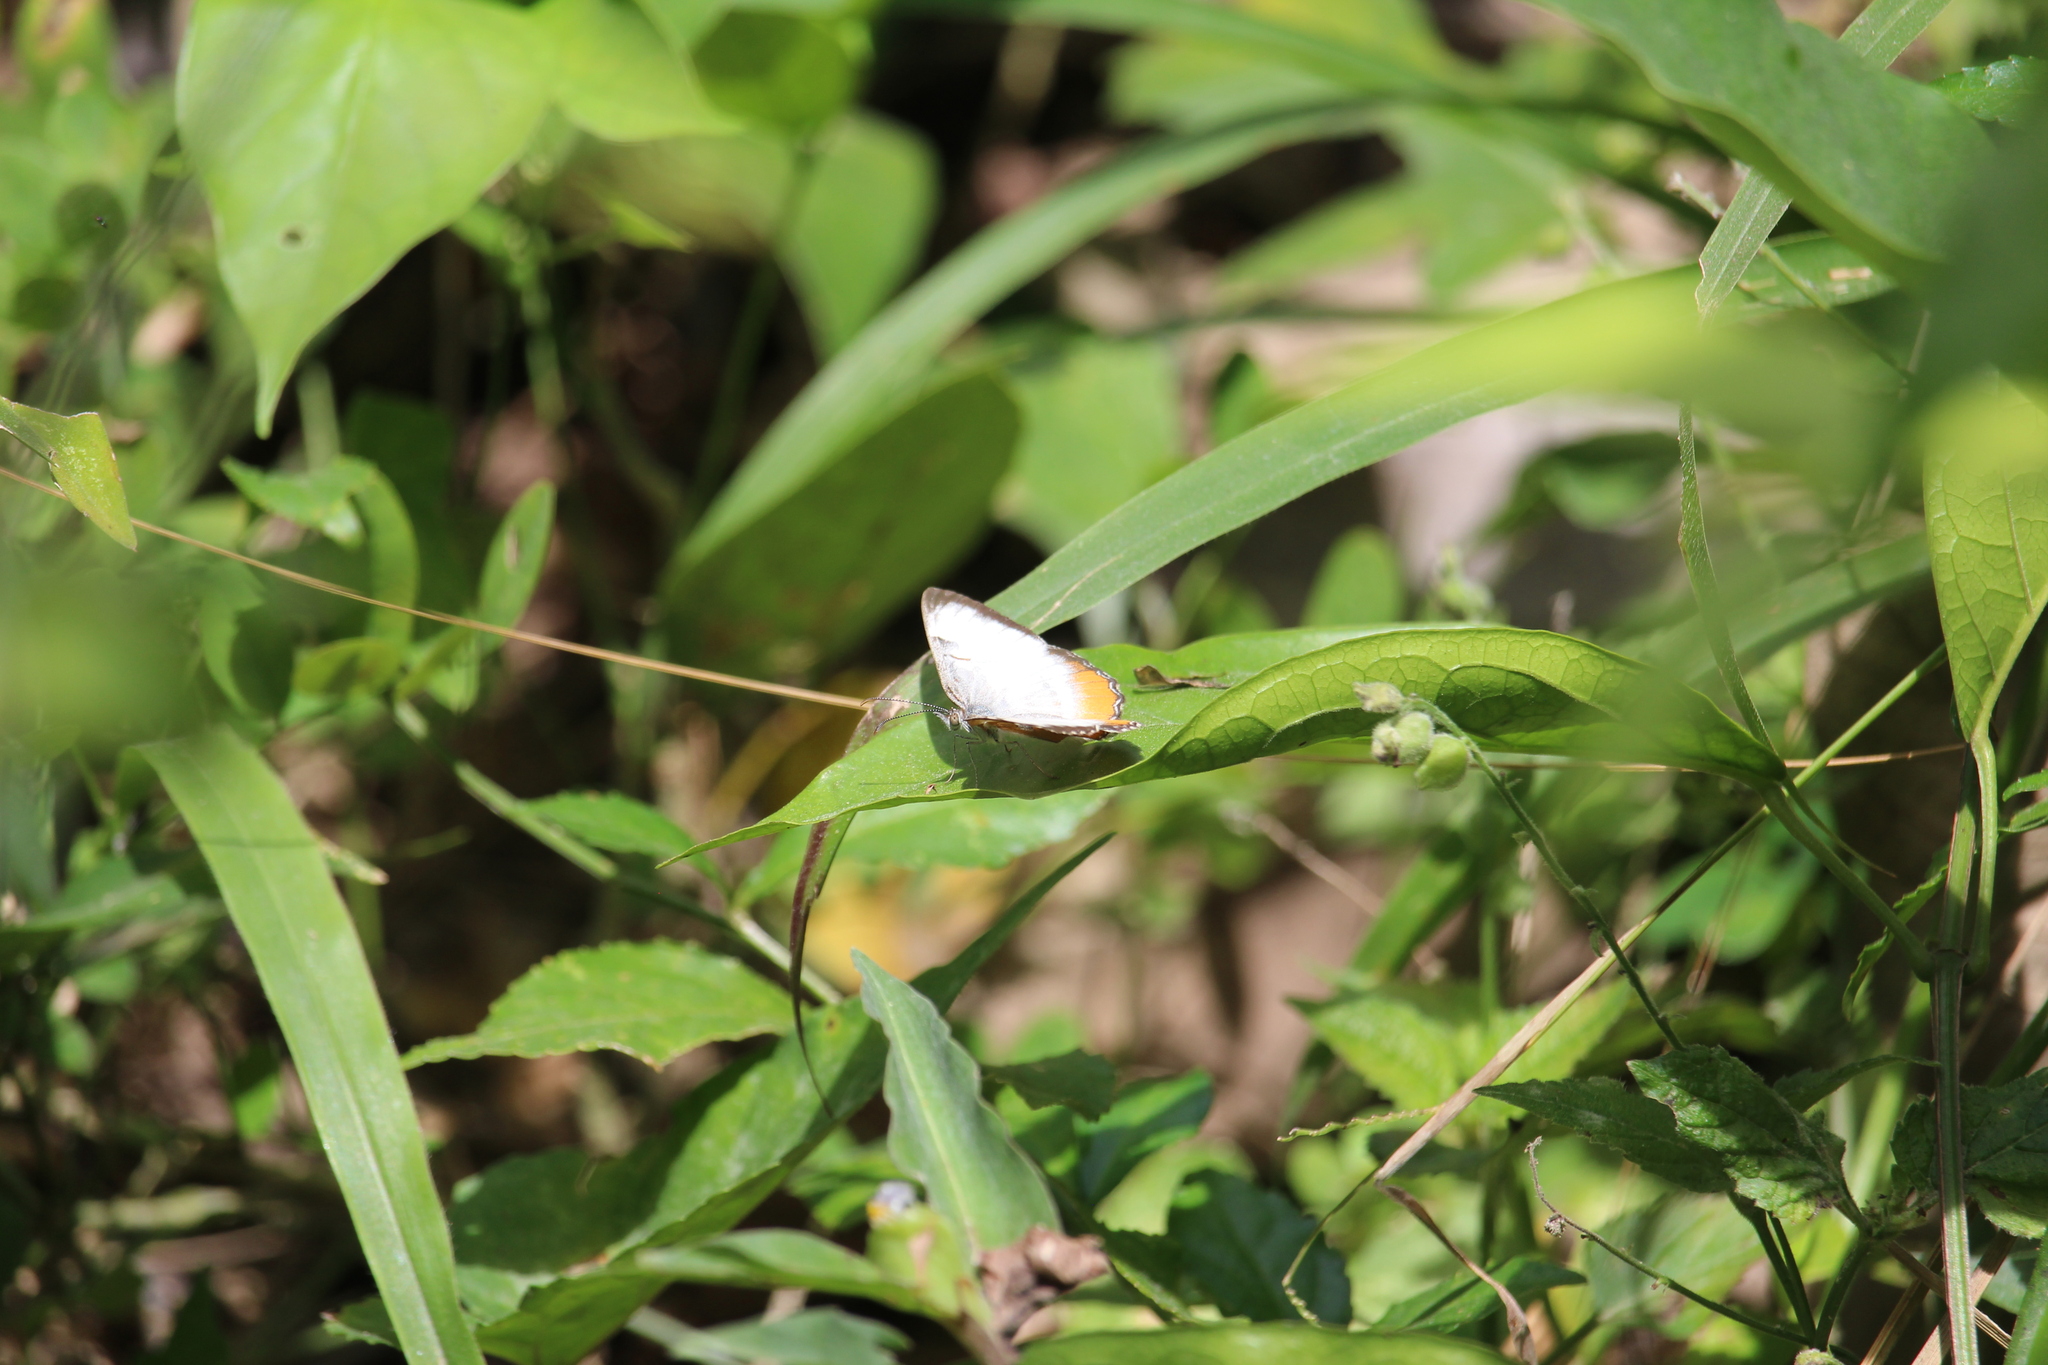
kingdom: Animalia
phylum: Arthropoda
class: Insecta
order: Lepidoptera
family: Nymphalidae
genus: Mestra
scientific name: Mestra amymone
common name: Common mestra
